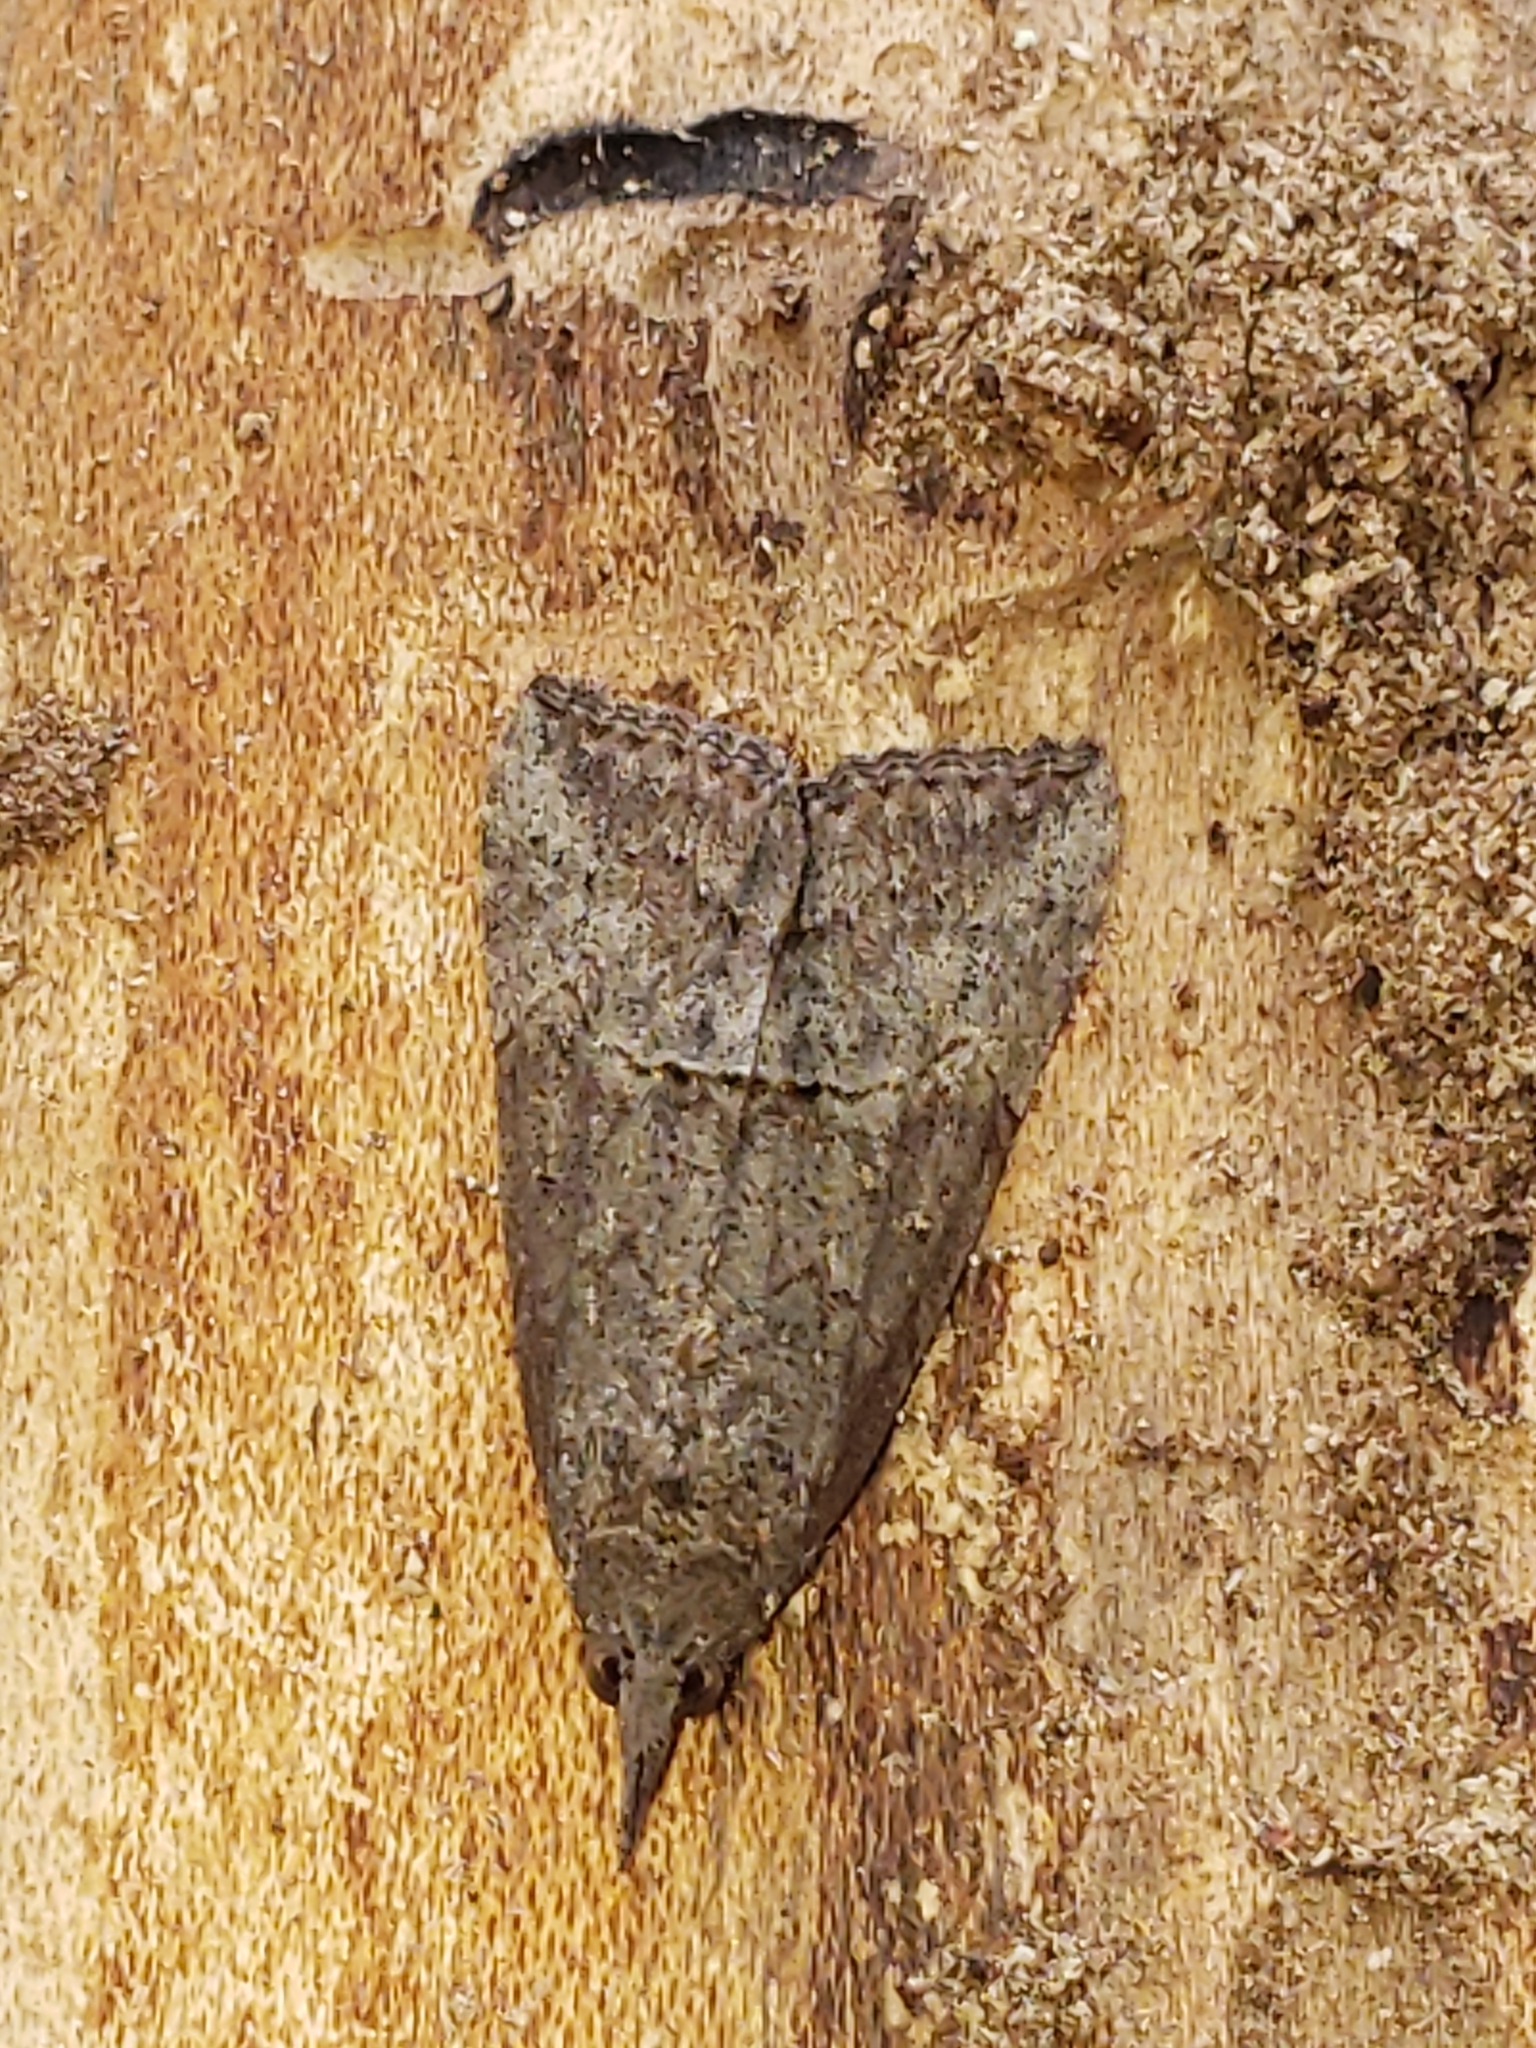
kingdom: Animalia
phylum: Arthropoda
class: Insecta
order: Lepidoptera
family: Erebidae
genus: Hypena
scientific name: Hypena scabra
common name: Green cloverworm
